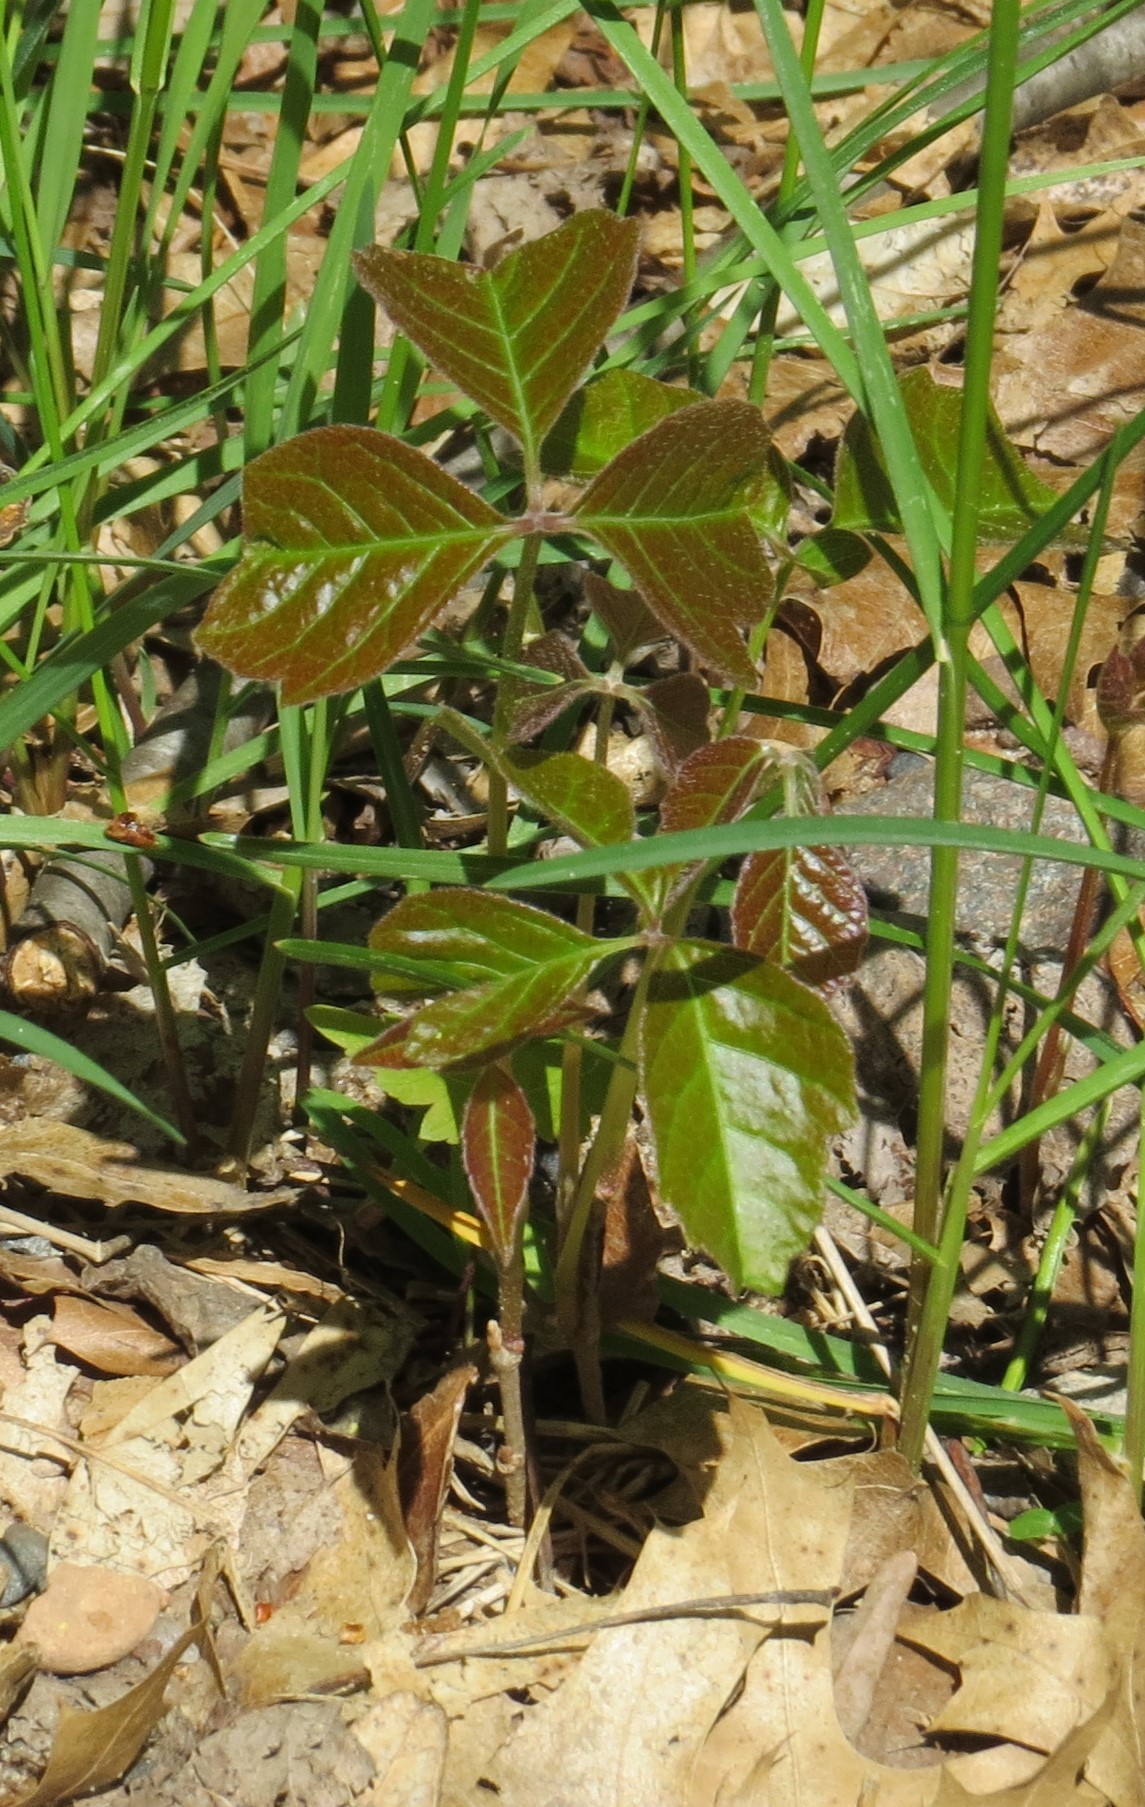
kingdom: Plantae
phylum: Tracheophyta
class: Magnoliopsida
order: Sapindales
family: Anacardiaceae
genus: Toxicodendron
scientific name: Toxicodendron rydbergii
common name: Rydberg's poison-ivy
